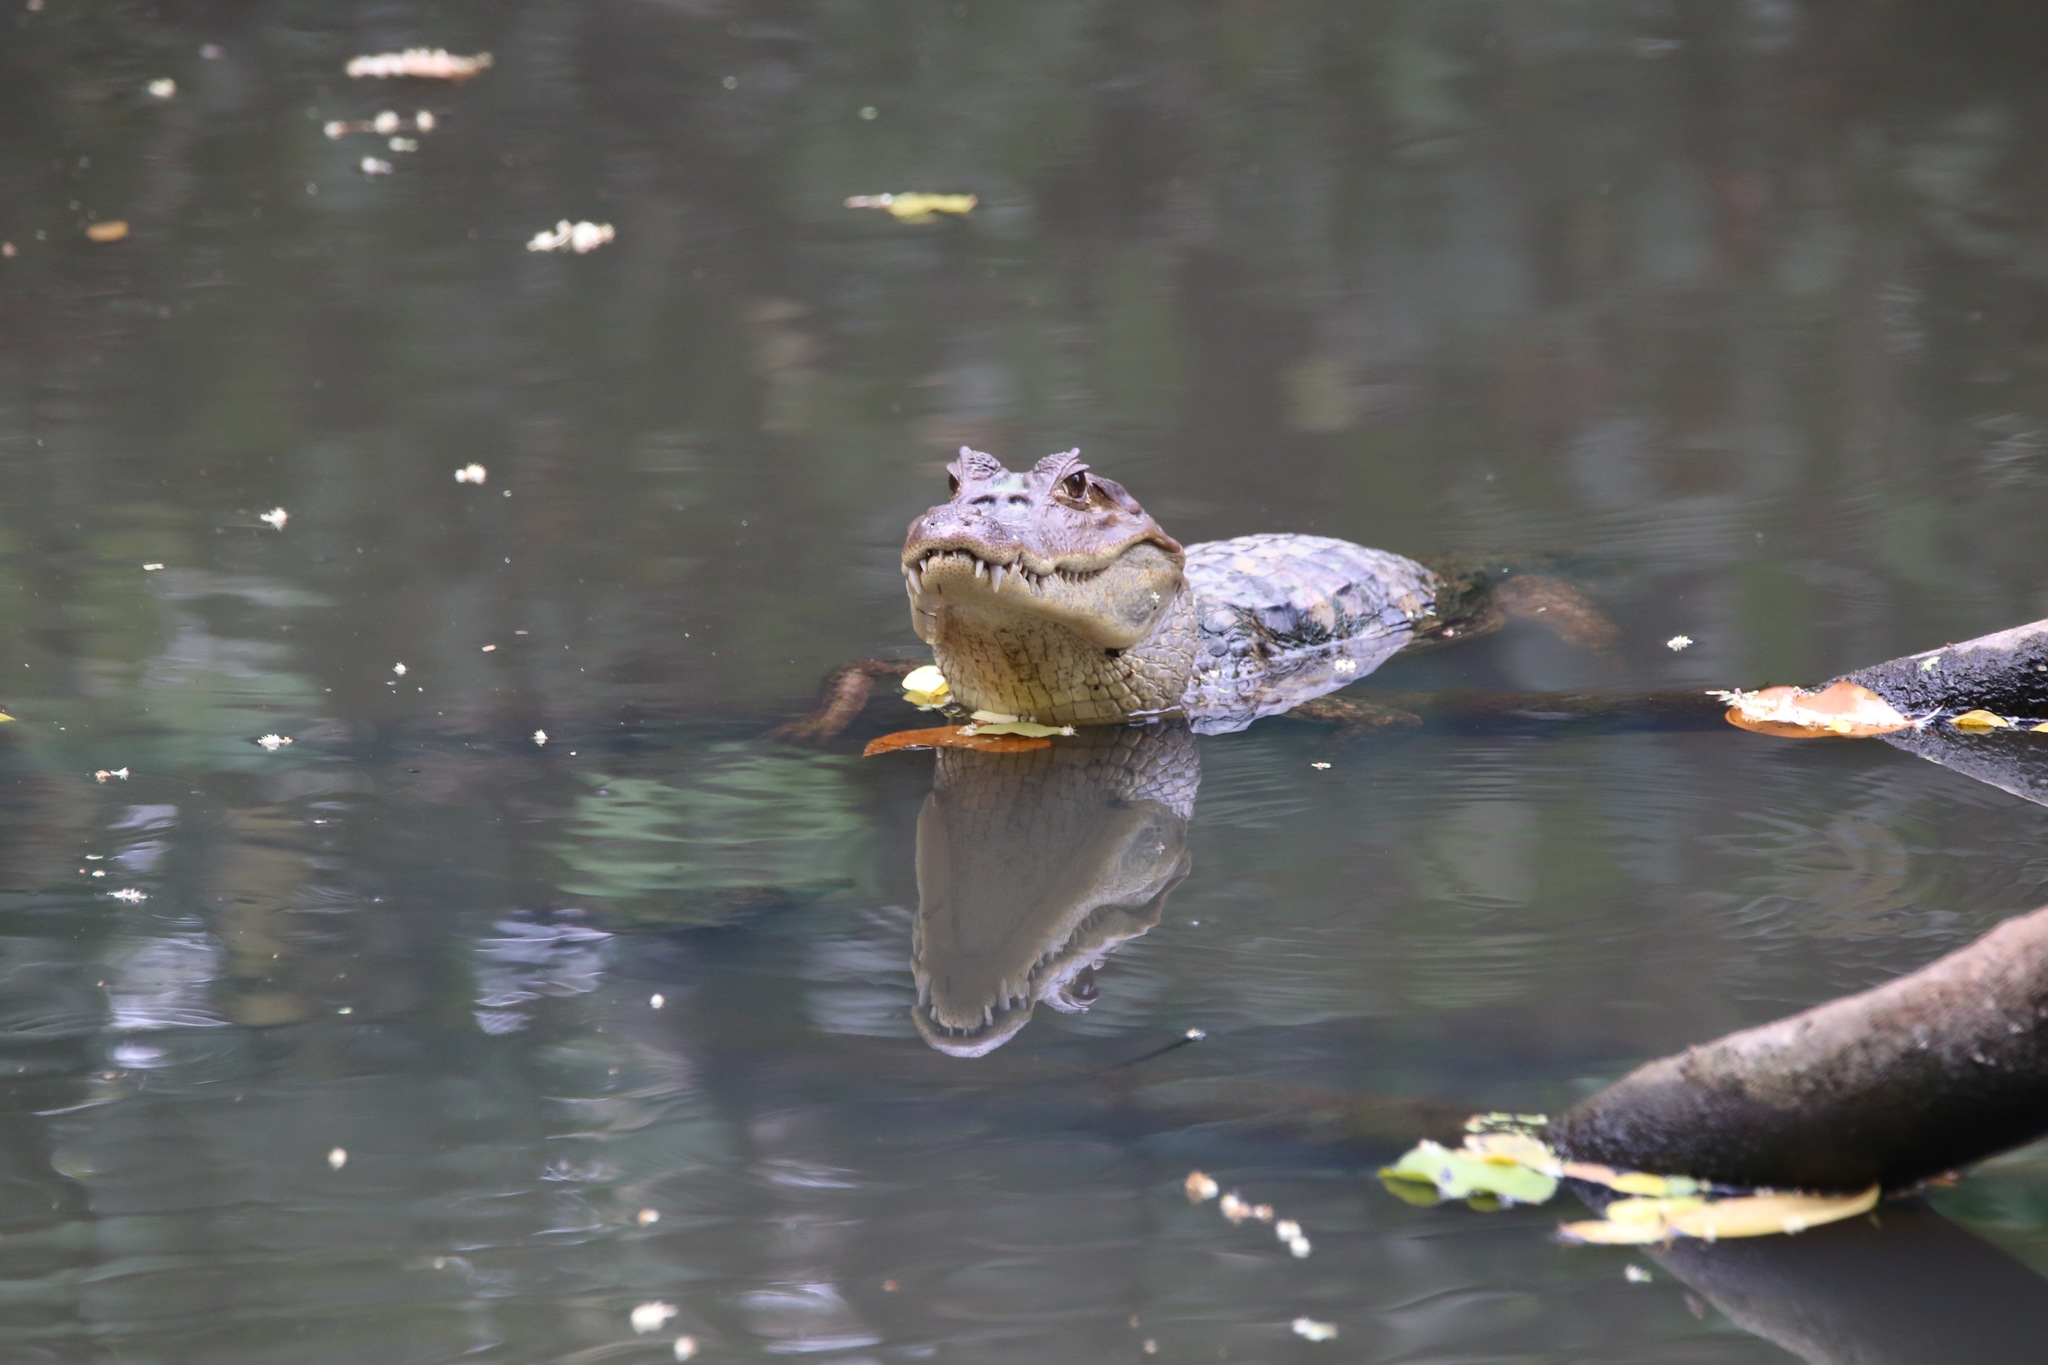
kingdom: Animalia
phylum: Chordata
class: Crocodylia
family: Alligatoridae
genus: Caiman
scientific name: Caiman crocodilus
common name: Common caiman
